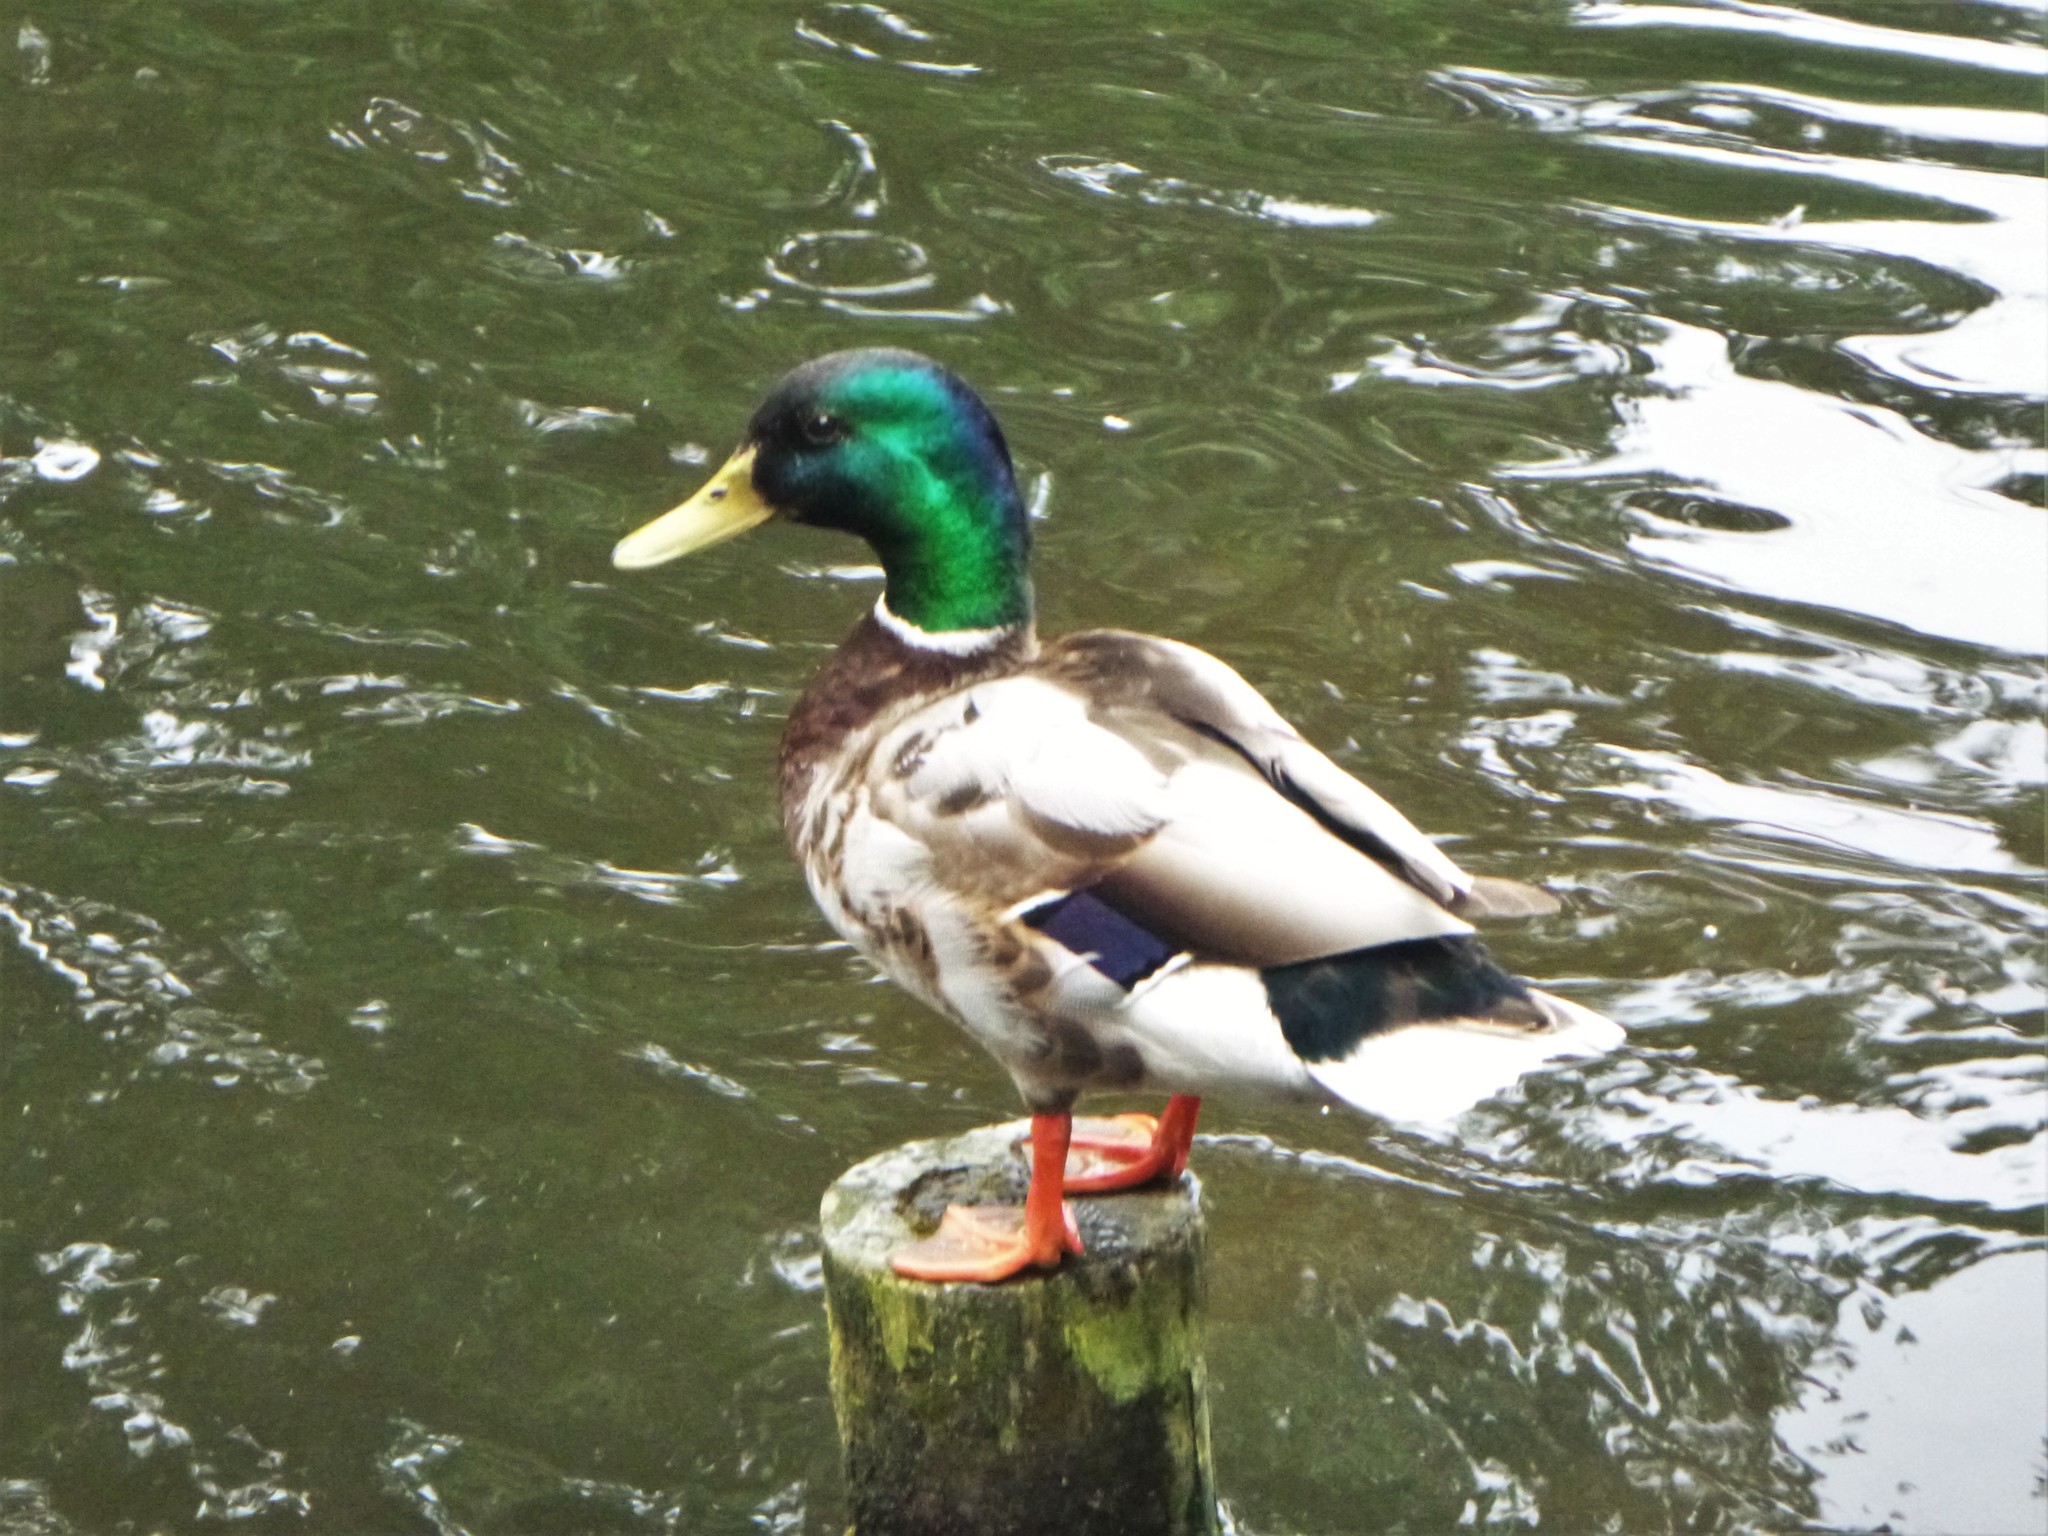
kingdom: Animalia
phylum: Chordata
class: Aves
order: Anseriformes
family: Anatidae
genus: Anas
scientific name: Anas platyrhynchos
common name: Mallard
